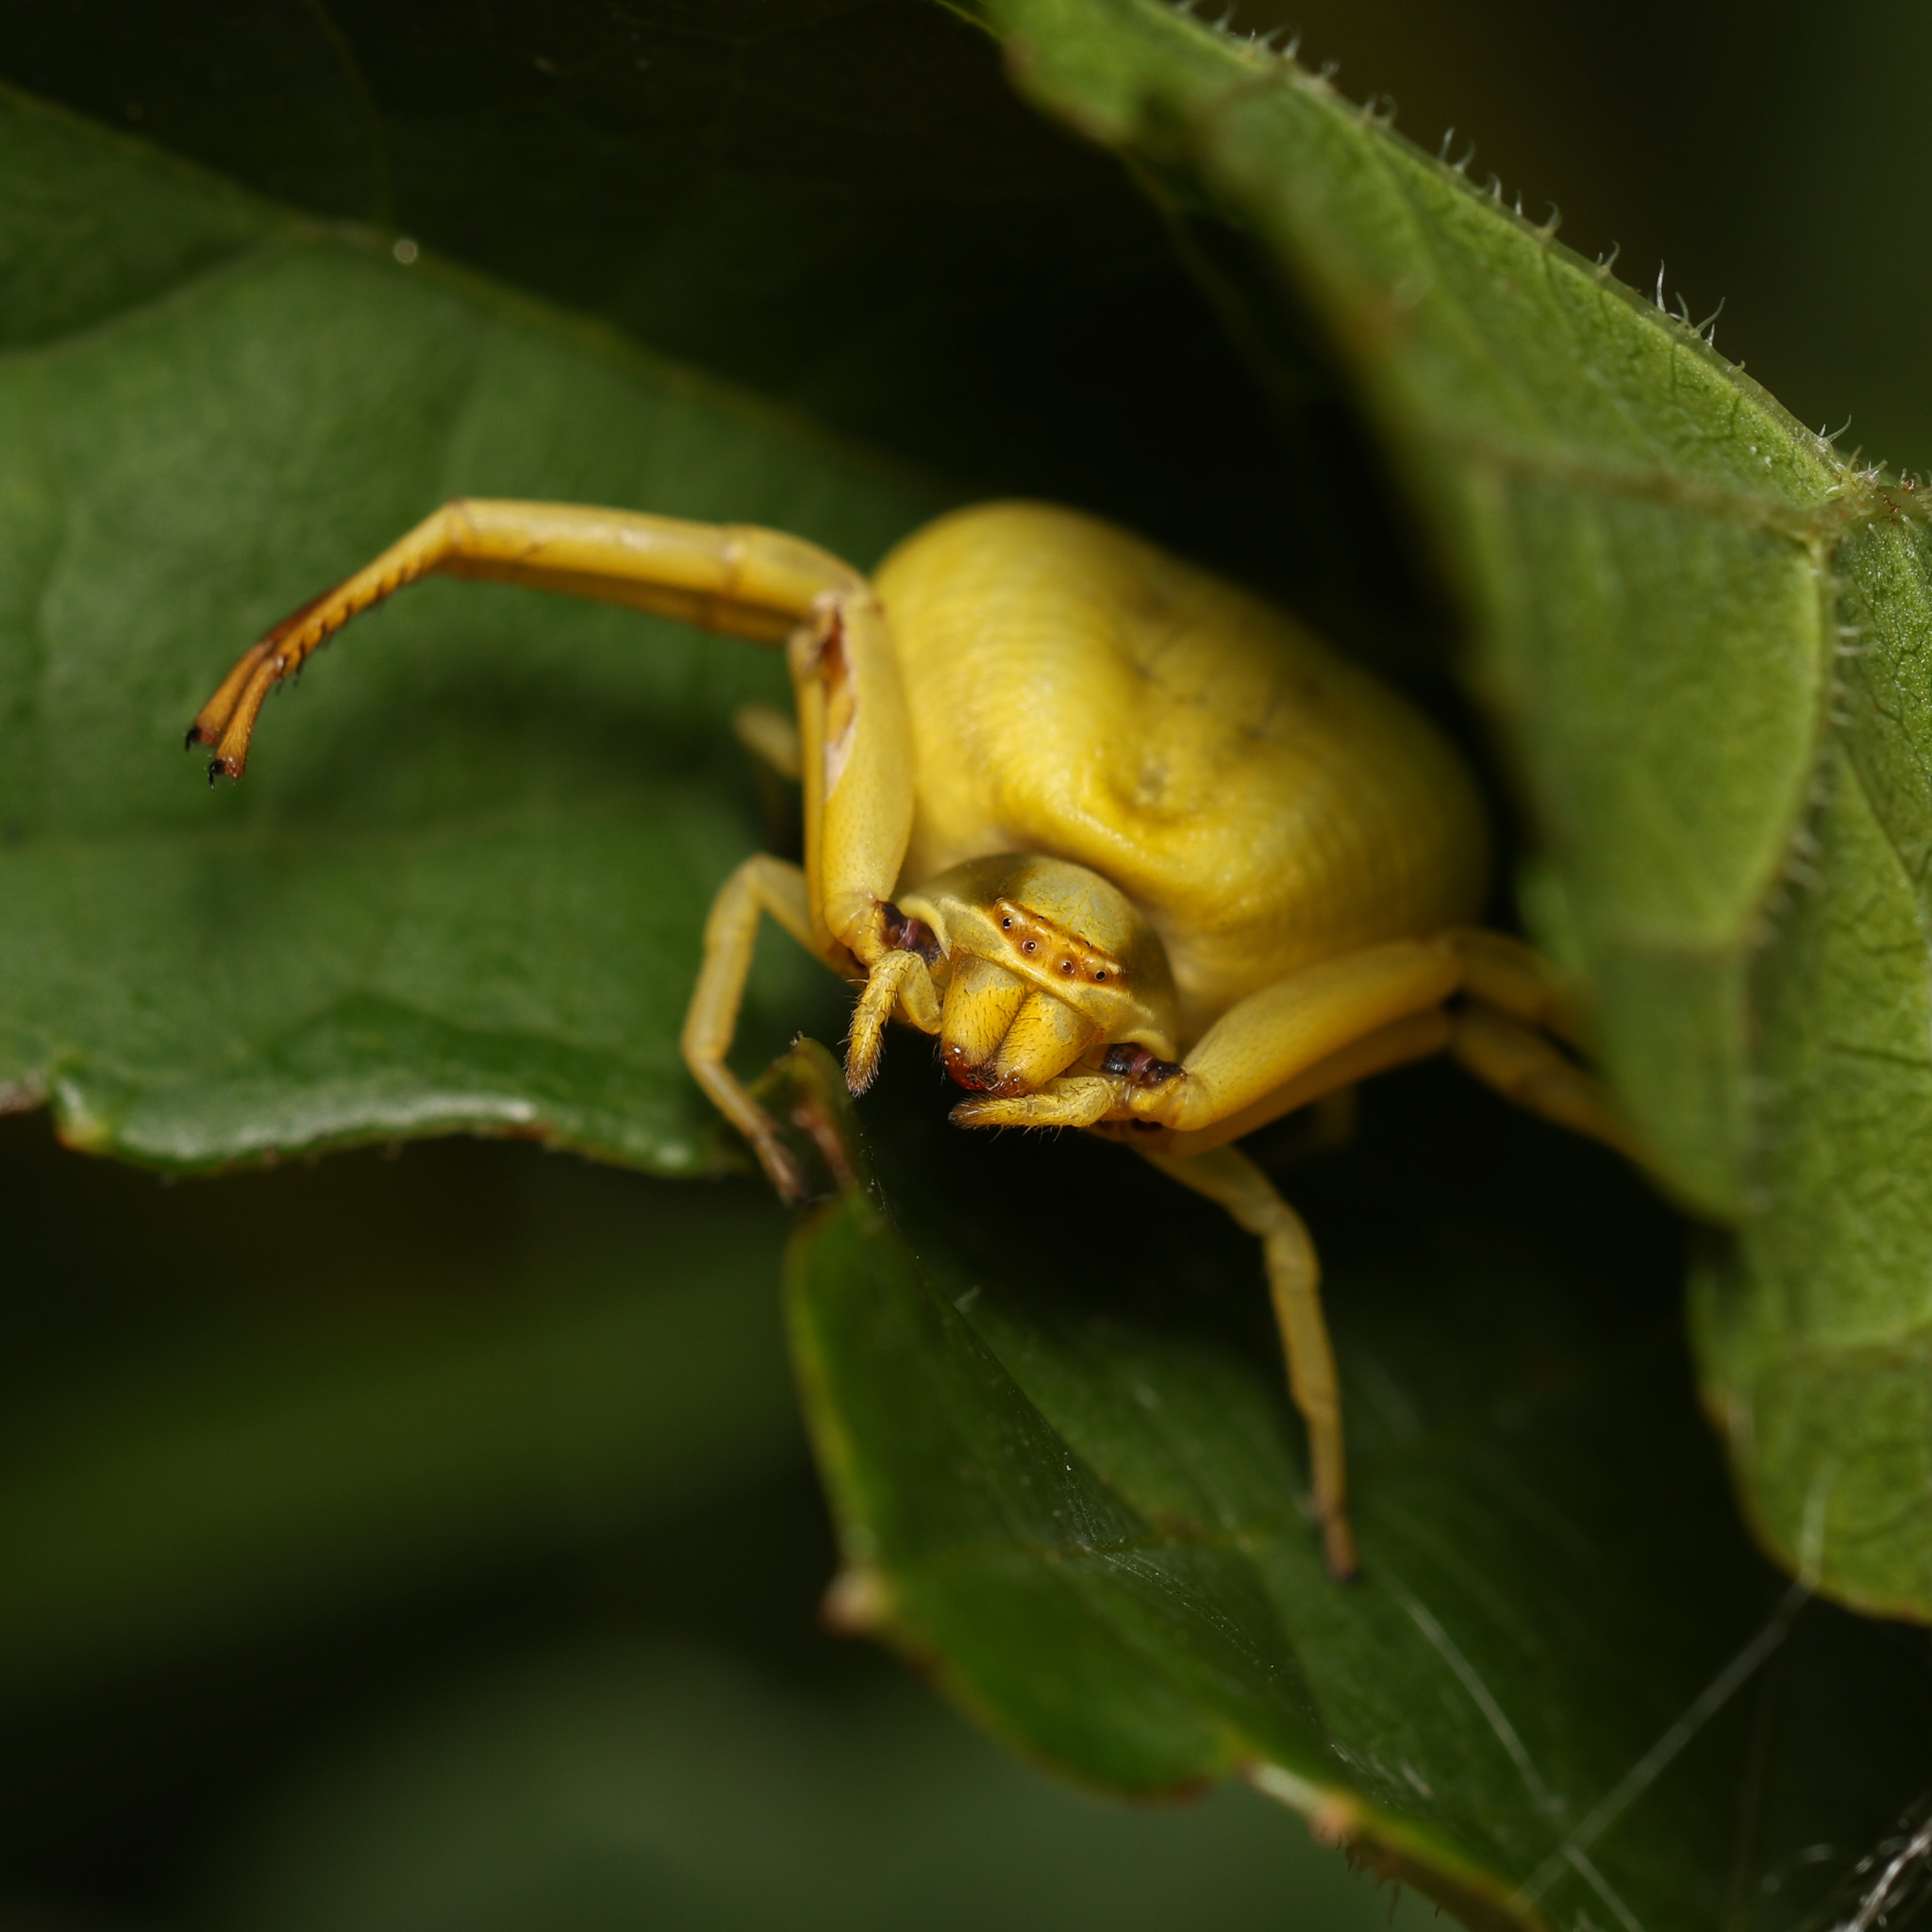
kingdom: Animalia
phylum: Arthropoda
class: Arachnida
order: Araneae
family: Thomisidae
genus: Misumenoides
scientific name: Misumenoides formosipes
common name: White-banded crab spider
